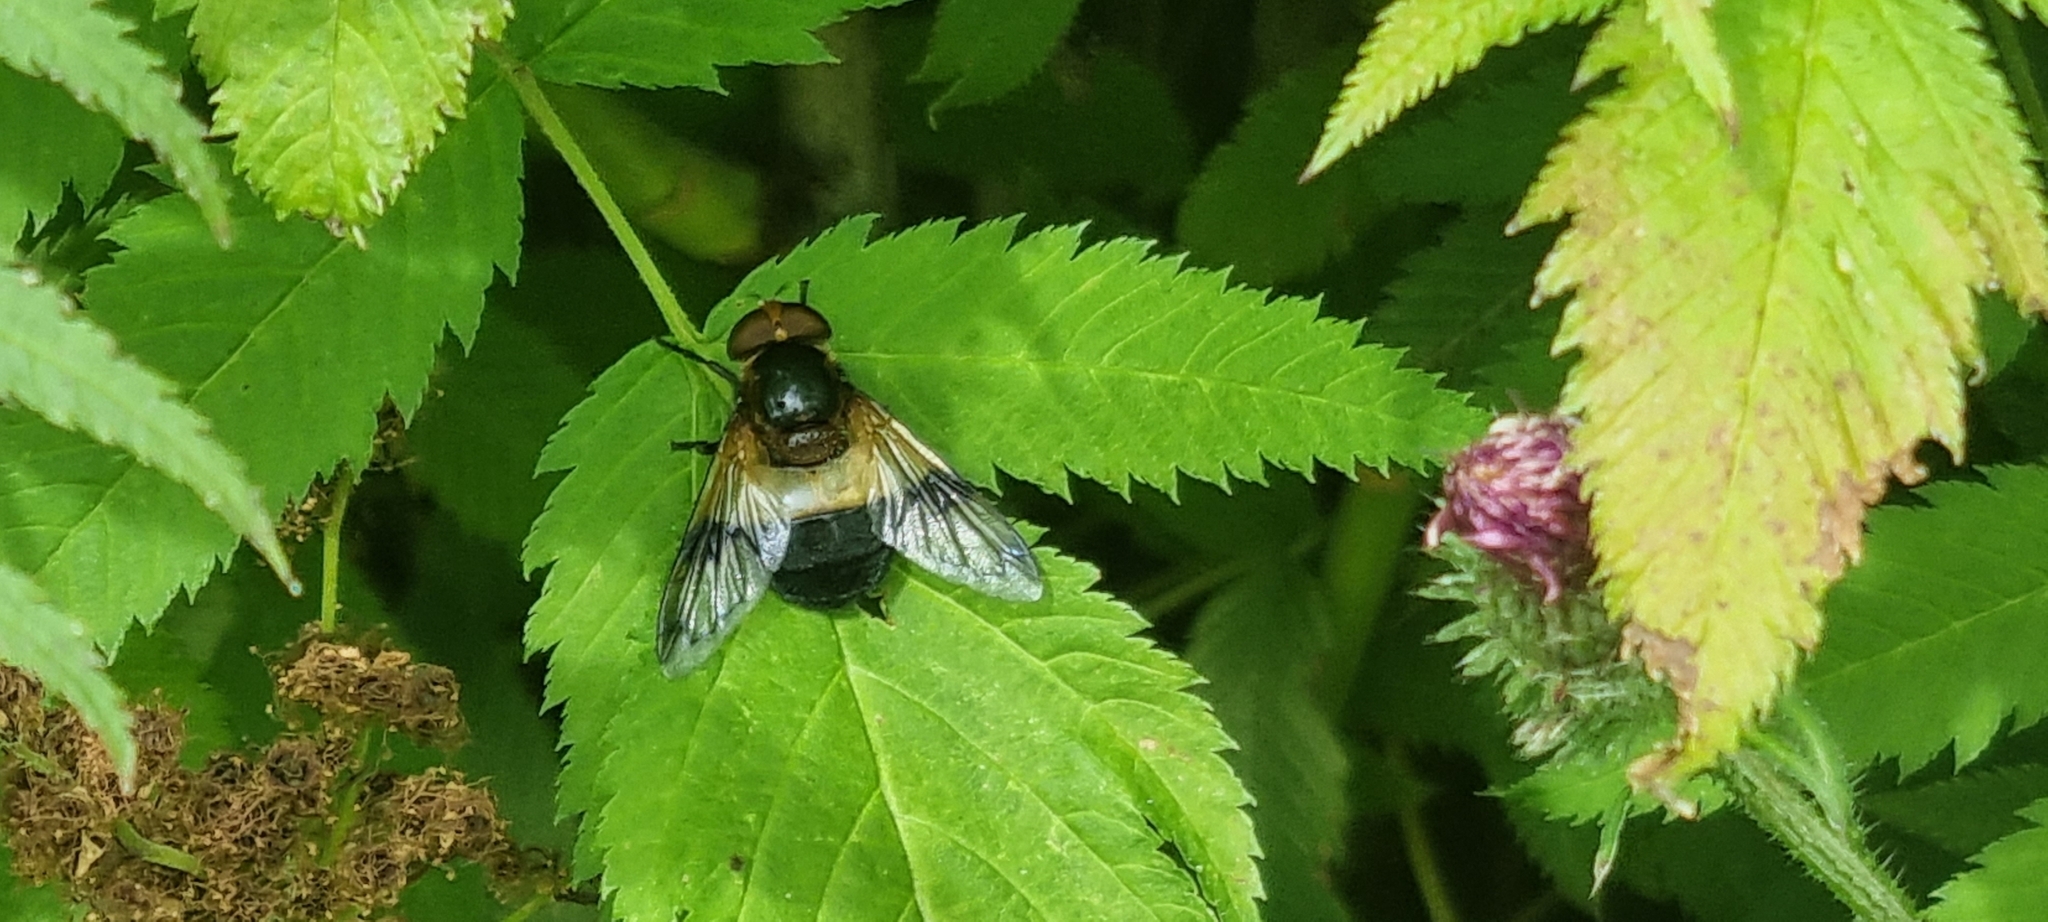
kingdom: Animalia
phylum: Arthropoda
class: Insecta
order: Diptera
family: Syrphidae
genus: Volucella
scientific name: Volucella pellucens
